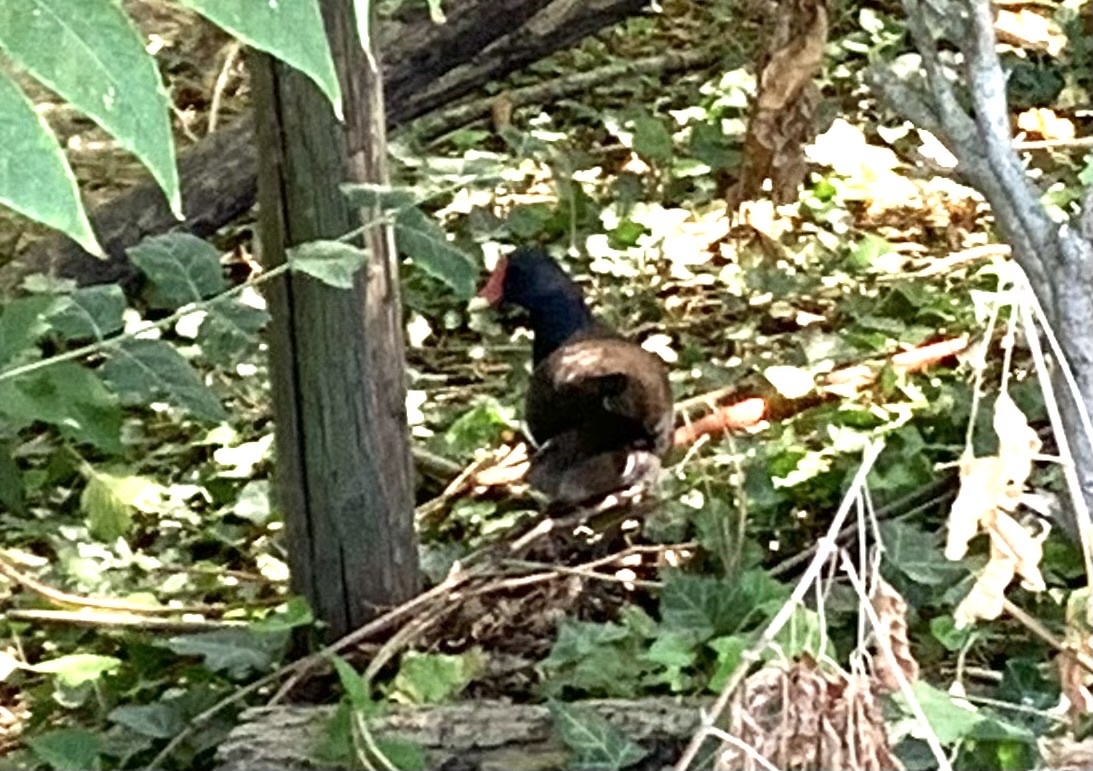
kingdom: Animalia
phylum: Chordata
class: Aves
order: Gruiformes
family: Rallidae
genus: Gallinula
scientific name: Gallinula chloropus
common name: Common moorhen
